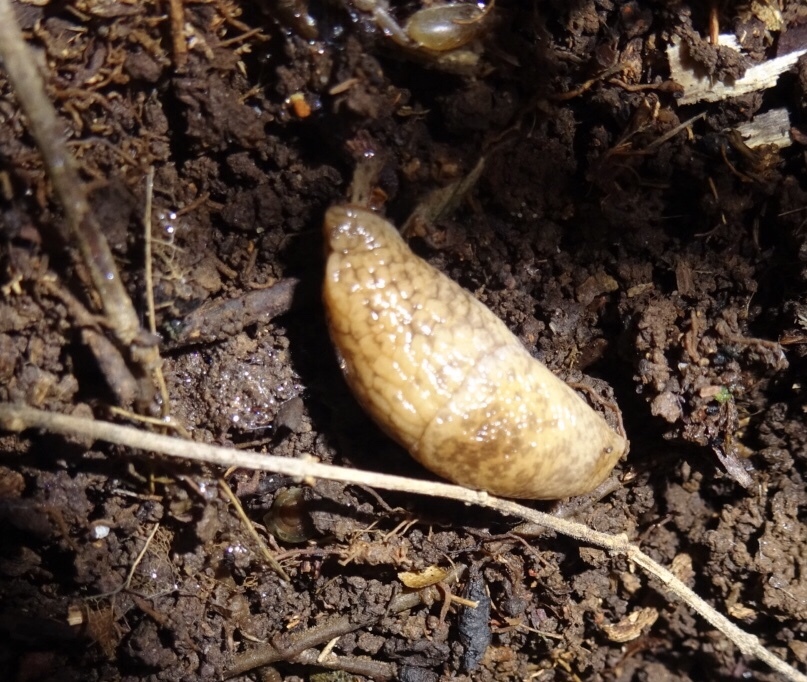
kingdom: Animalia
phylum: Mollusca
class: Gastropoda
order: Stylommatophora
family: Agriolimacidae
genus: Deroceras
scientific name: Deroceras reticulatum
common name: Gray field slug
